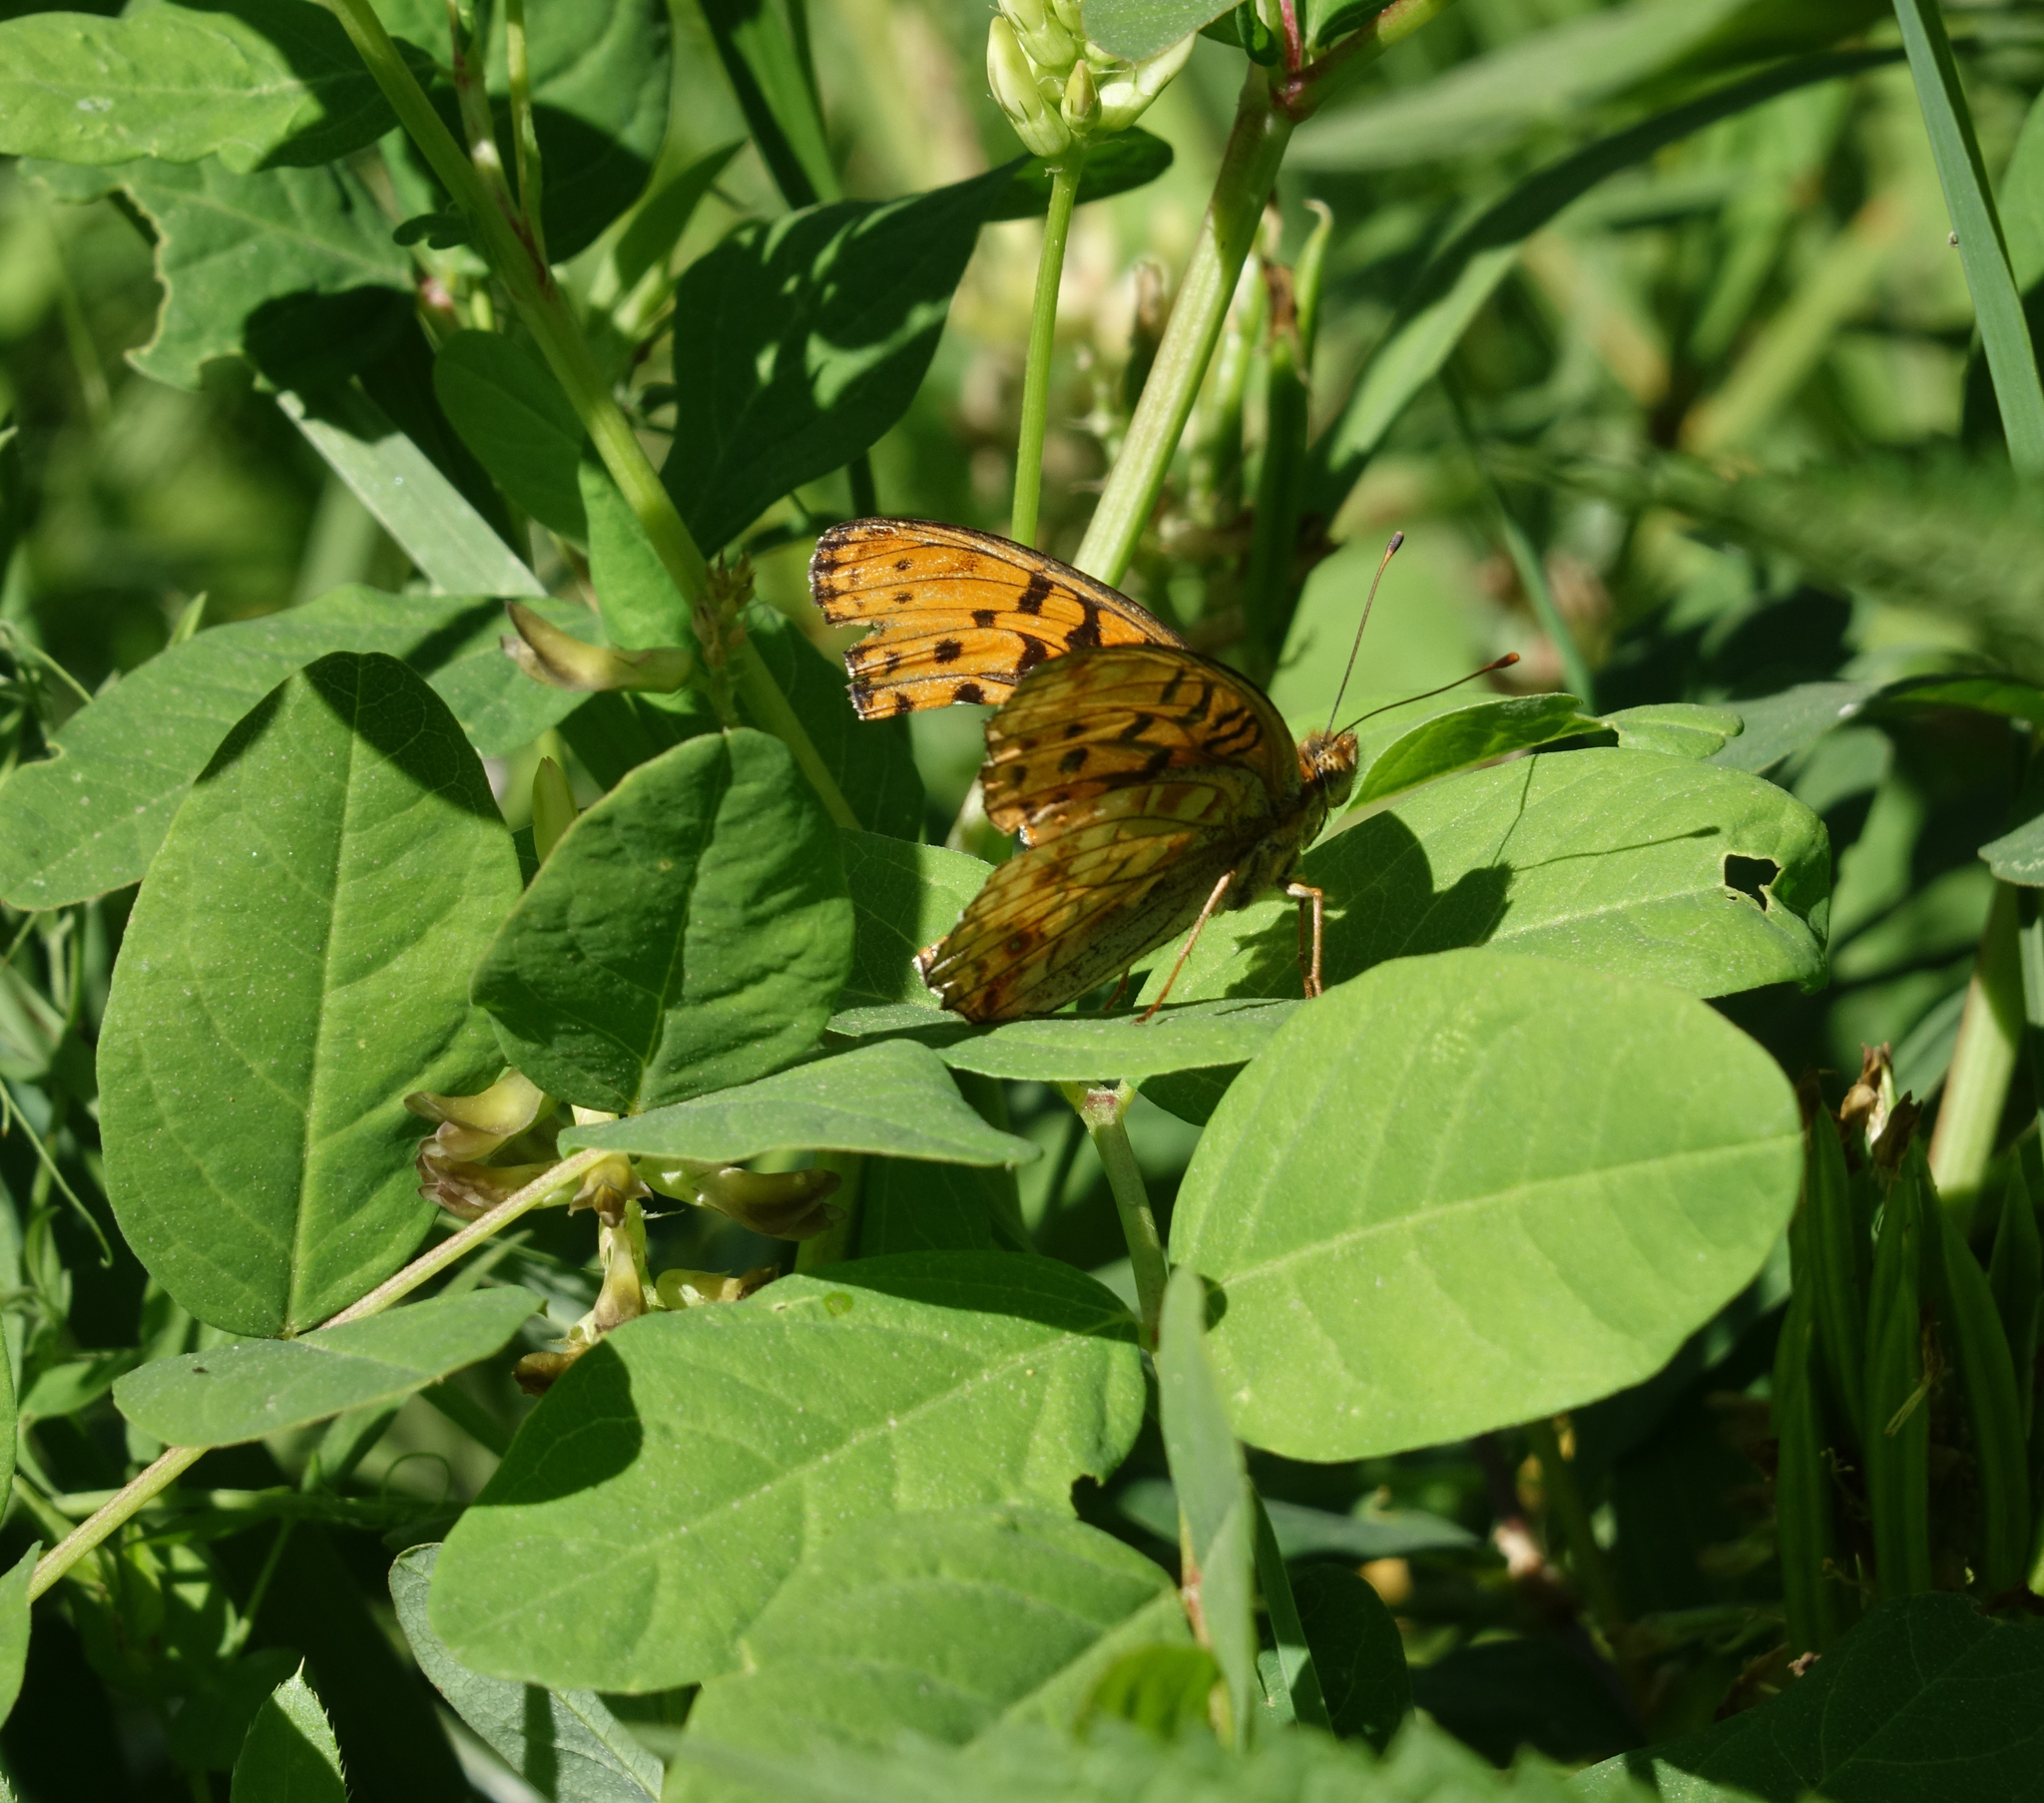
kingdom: Animalia
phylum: Arthropoda
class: Insecta
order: Lepidoptera
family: Nymphalidae
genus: Fabriciana
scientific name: Fabriciana adippe
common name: High brown fritillary
